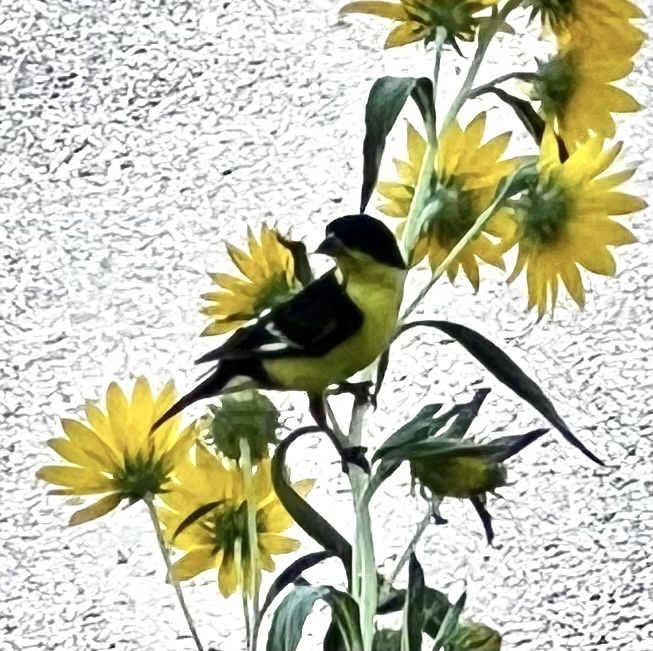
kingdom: Animalia
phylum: Chordata
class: Aves
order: Passeriformes
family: Fringillidae
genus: Spinus
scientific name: Spinus psaltria
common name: Lesser goldfinch
